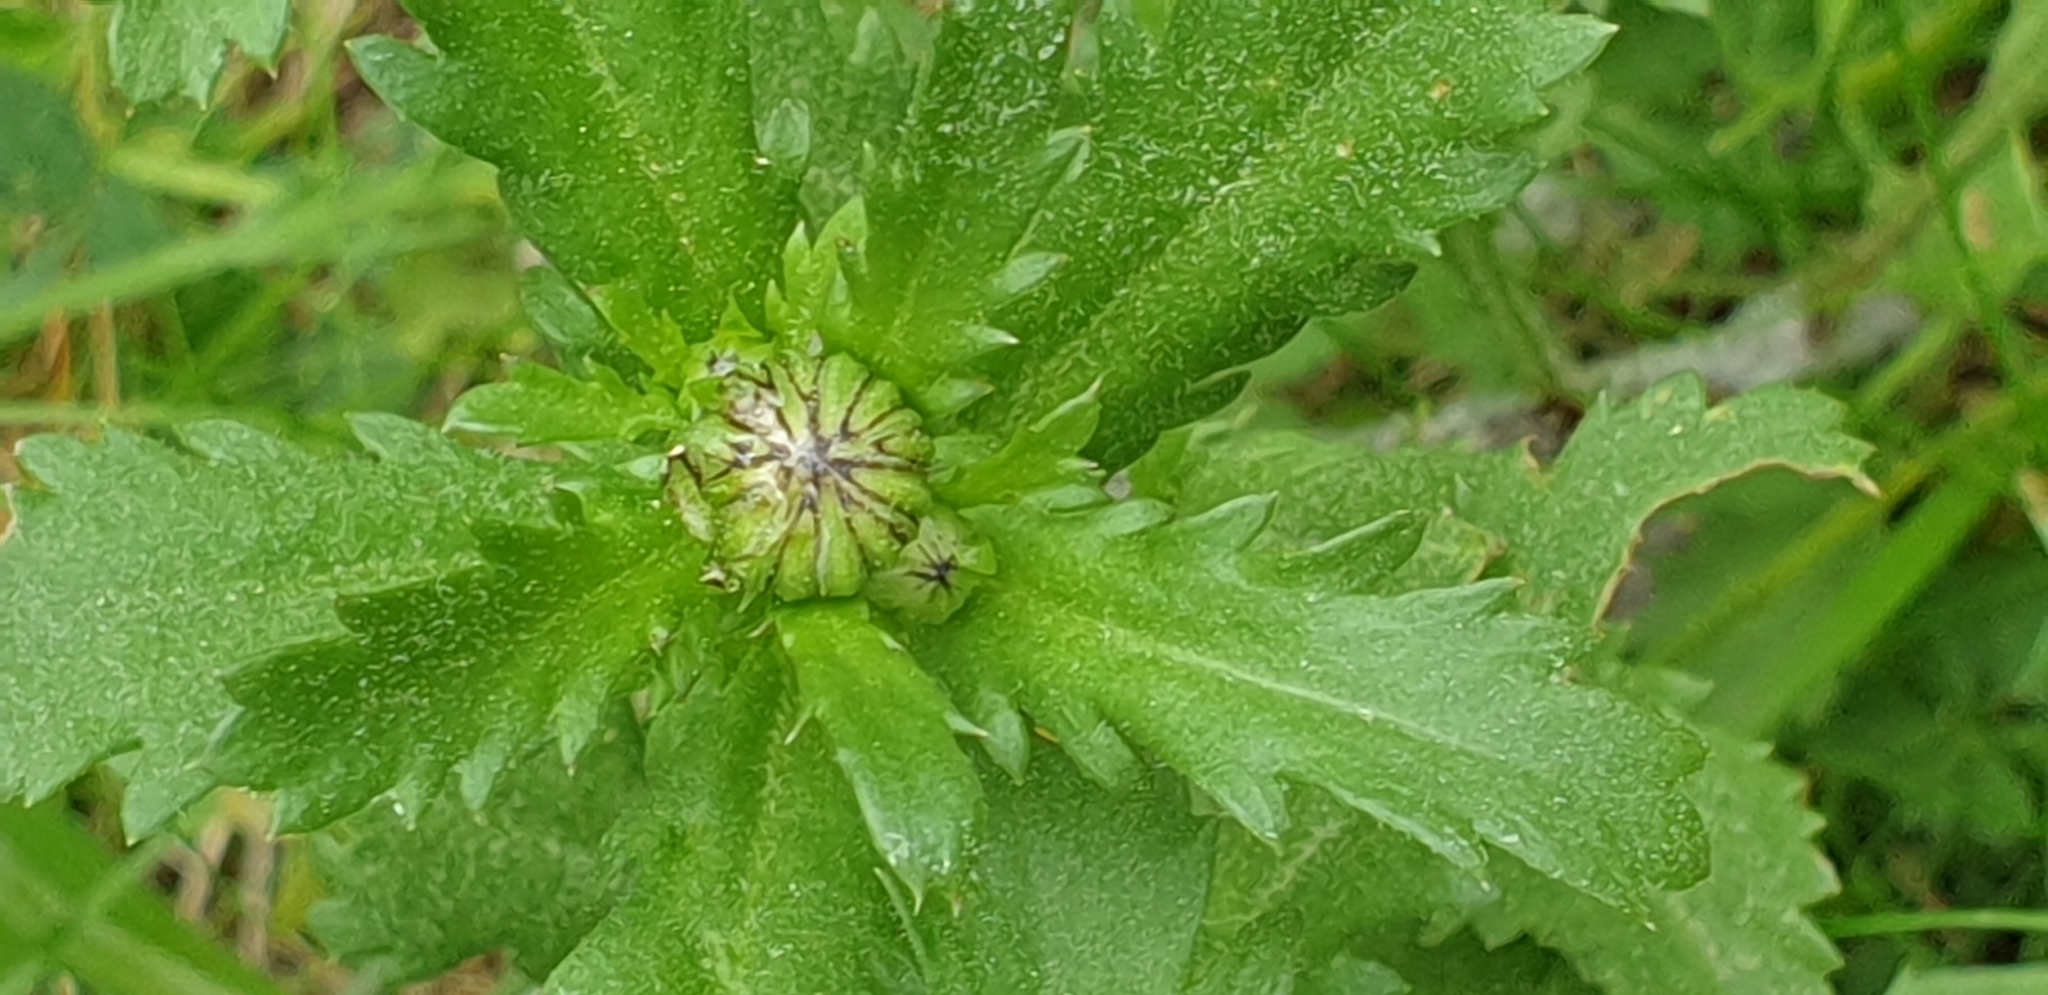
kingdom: Plantae
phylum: Tracheophyta
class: Magnoliopsida
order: Asterales
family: Asteraceae
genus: Leucanthemum
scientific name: Leucanthemum vulgare
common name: Oxeye daisy
